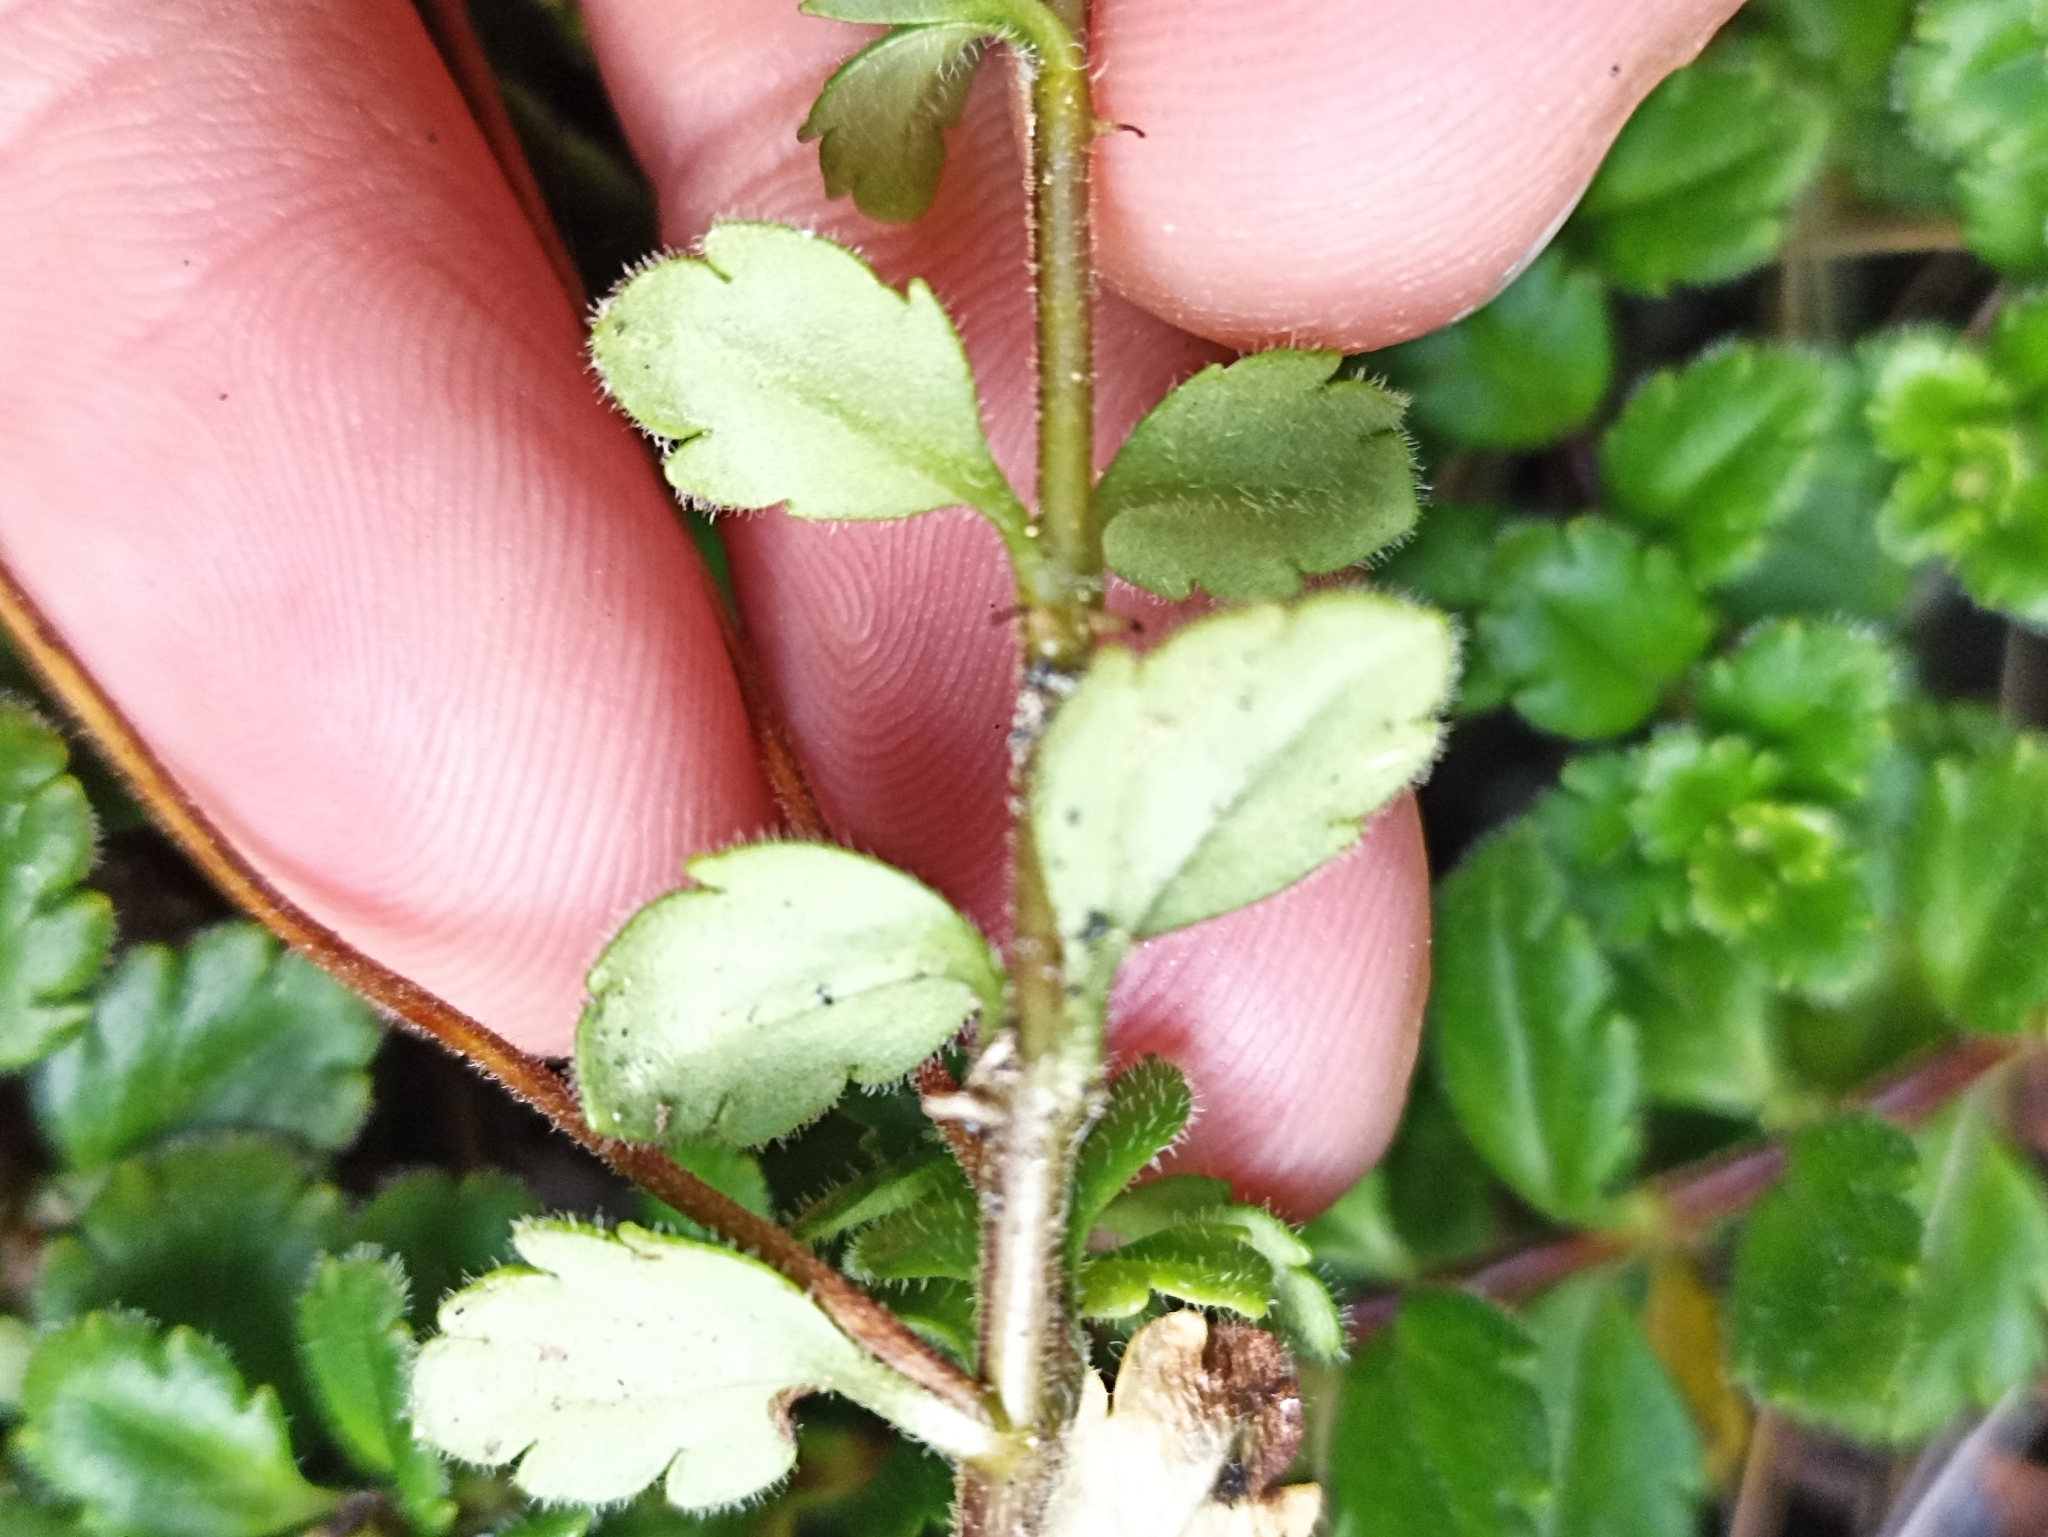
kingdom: Plantae
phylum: Tracheophyta
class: Magnoliopsida
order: Lamiales
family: Plantaginaceae
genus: Veronica
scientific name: Veronica hookeriana
